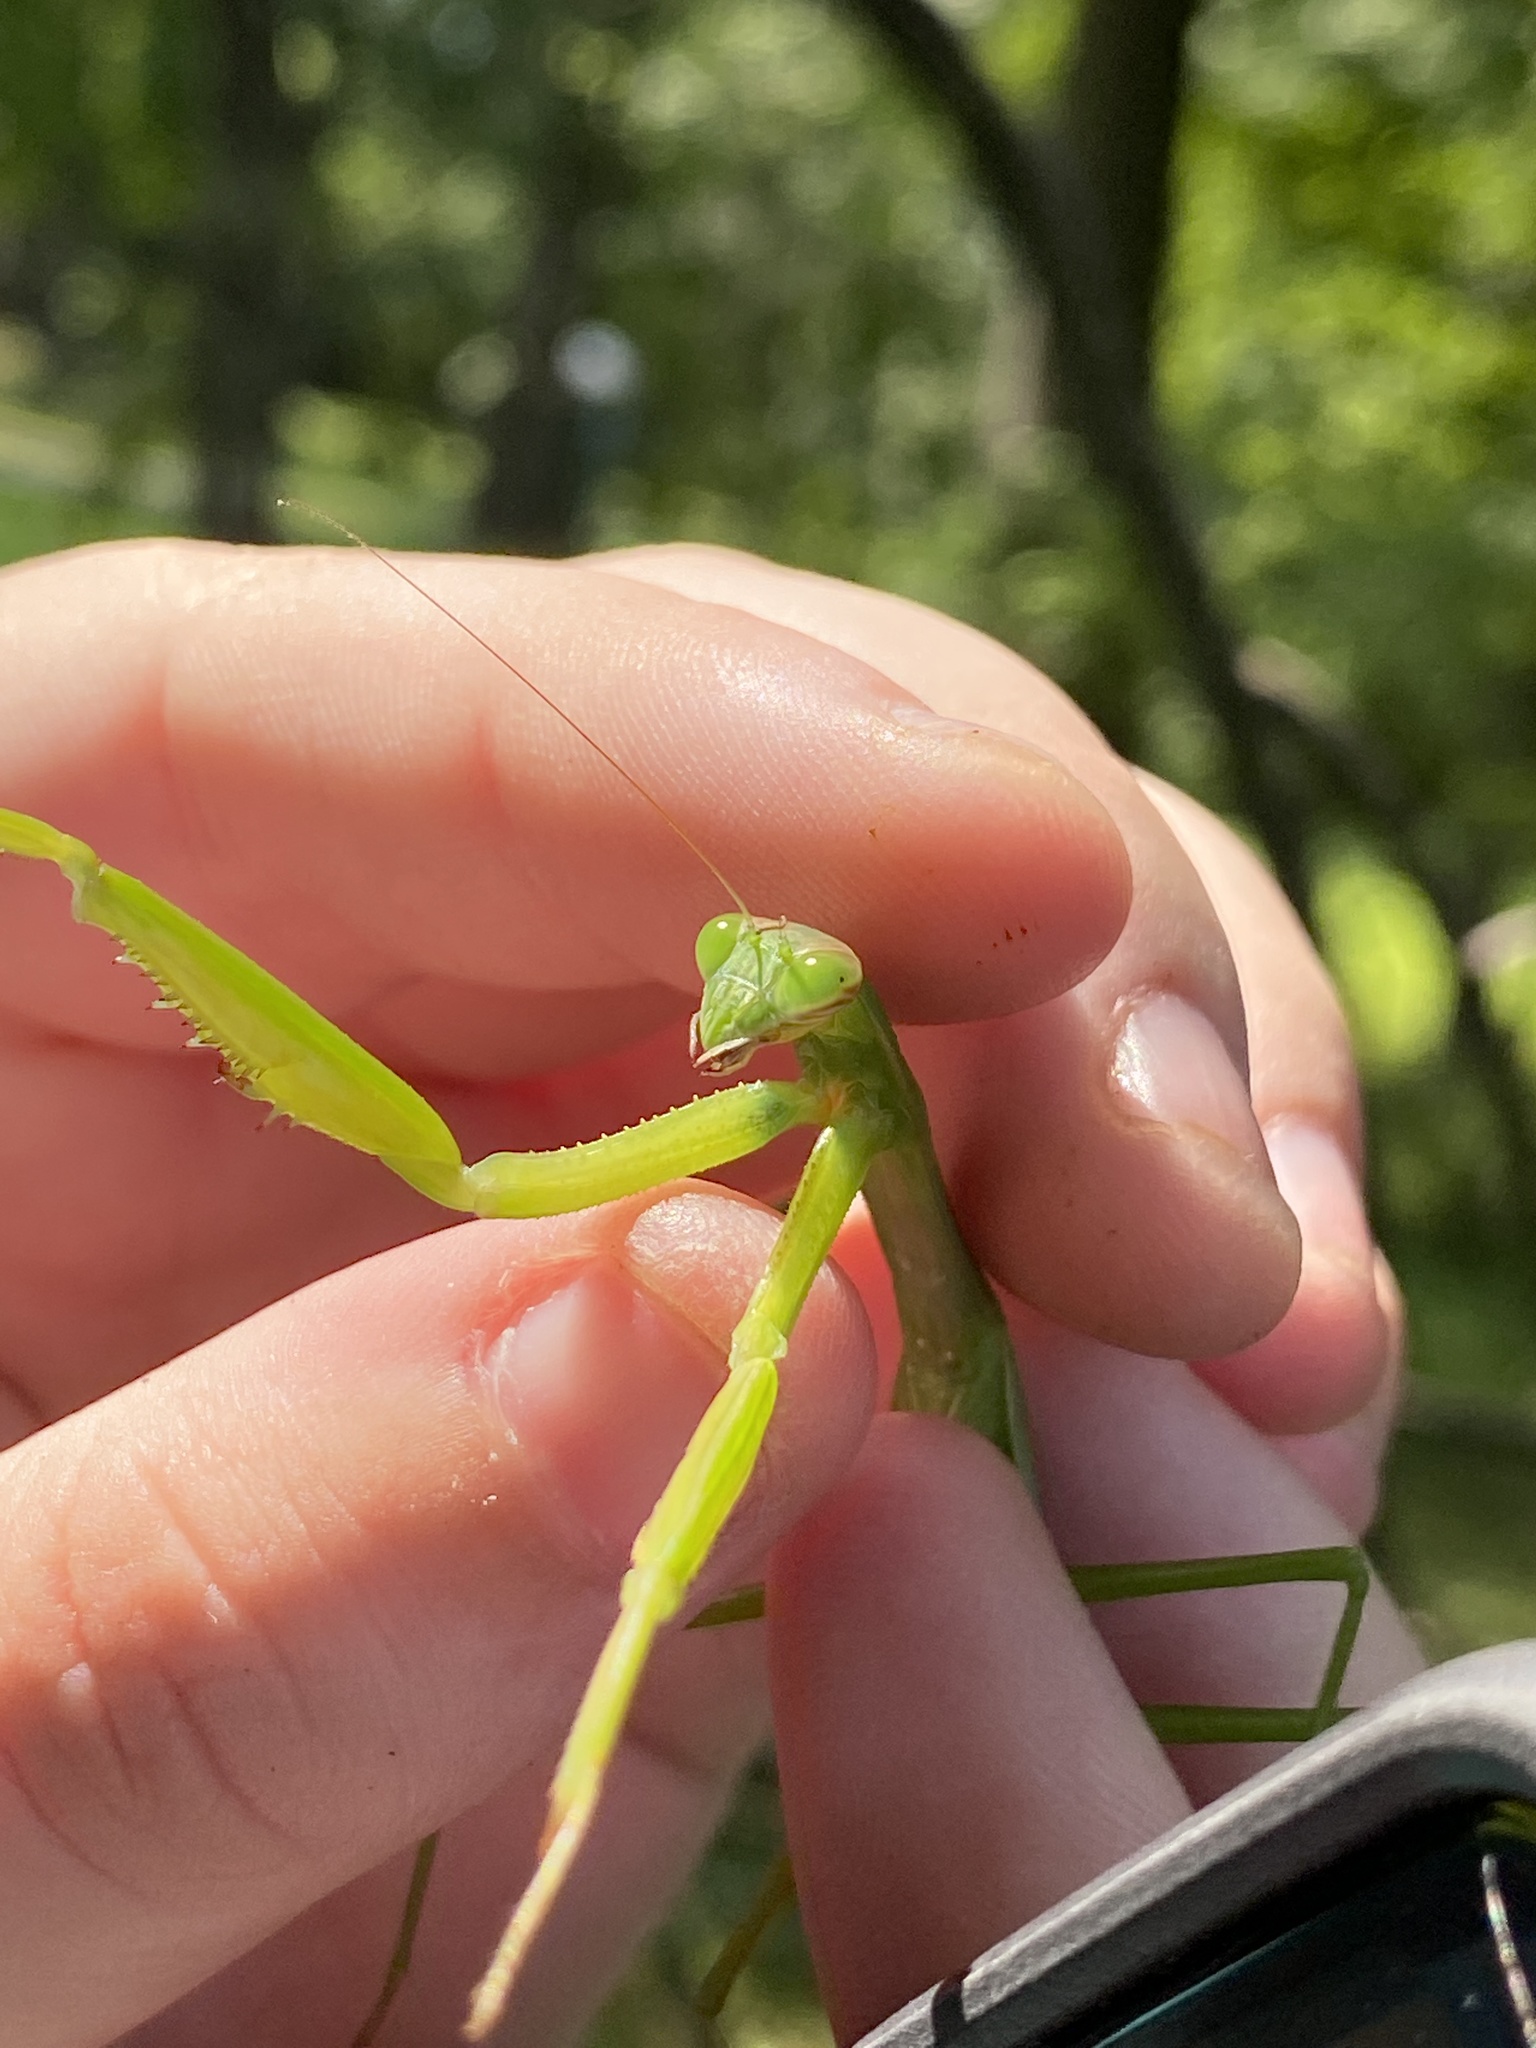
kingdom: Animalia
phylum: Arthropoda
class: Insecta
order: Mantodea
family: Mantidae
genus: Tenodera
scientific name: Tenodera sinensis
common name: Chinese mantis
